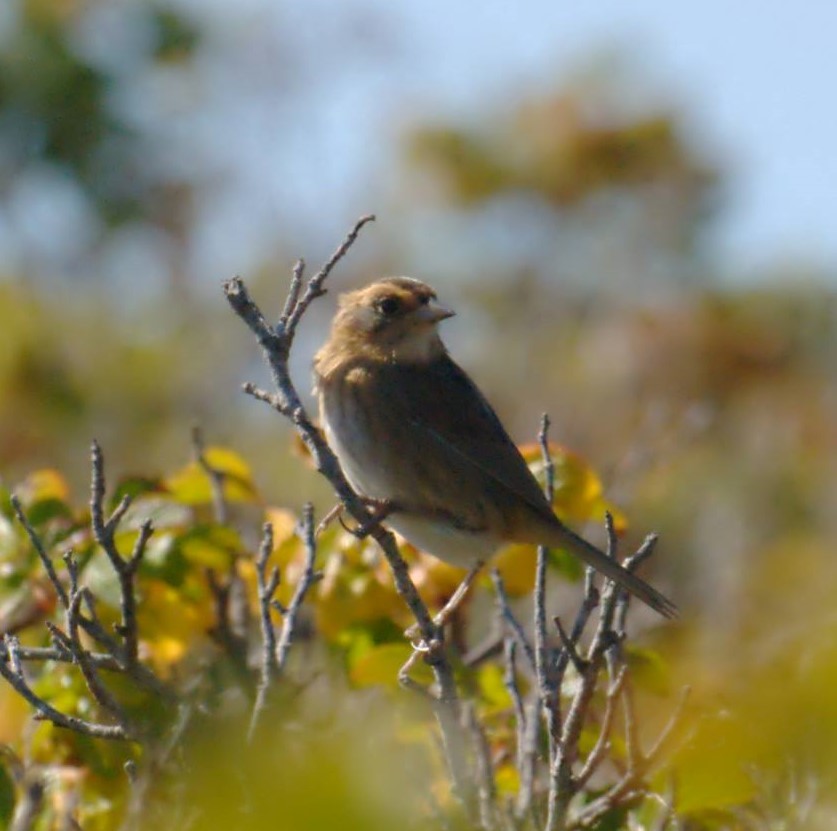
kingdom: Animalia
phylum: Chordata
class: Aves
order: Passeriformes
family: Passerellidae
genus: Ammospiza
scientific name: Ammospiza nelsoni
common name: Nelson's sparrow
